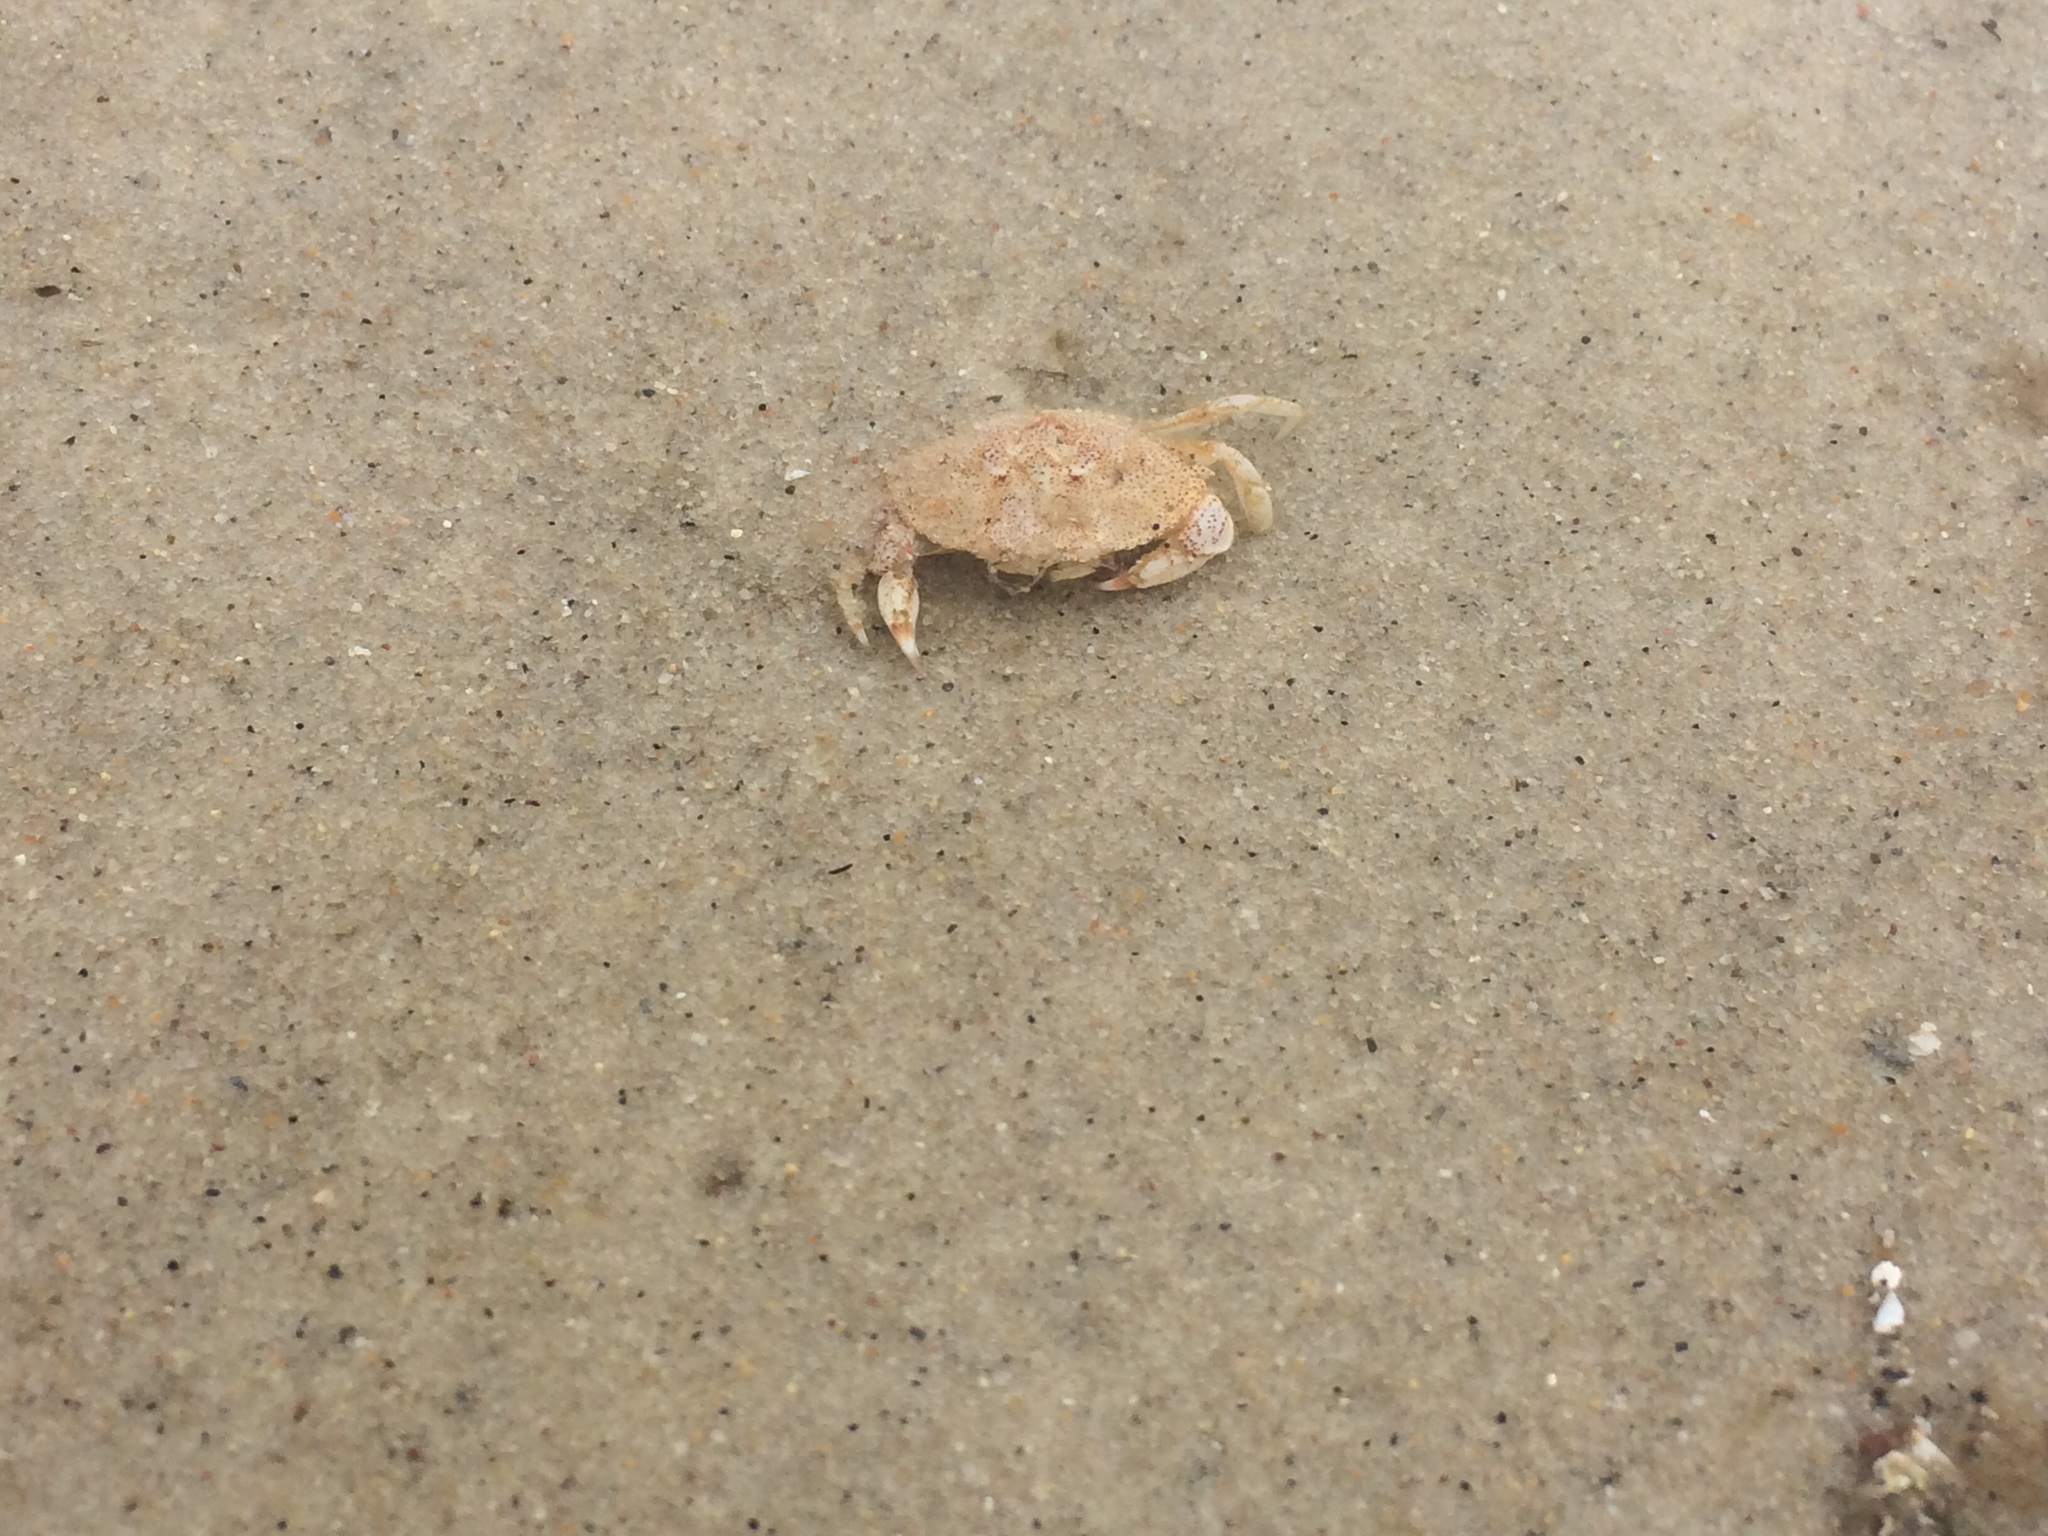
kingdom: Animalia
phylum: Arthropoda
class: Malacostraca
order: Decapoda
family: Cancridae
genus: Cancer
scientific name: Cancer irroratus
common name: Atlantic rock crab
